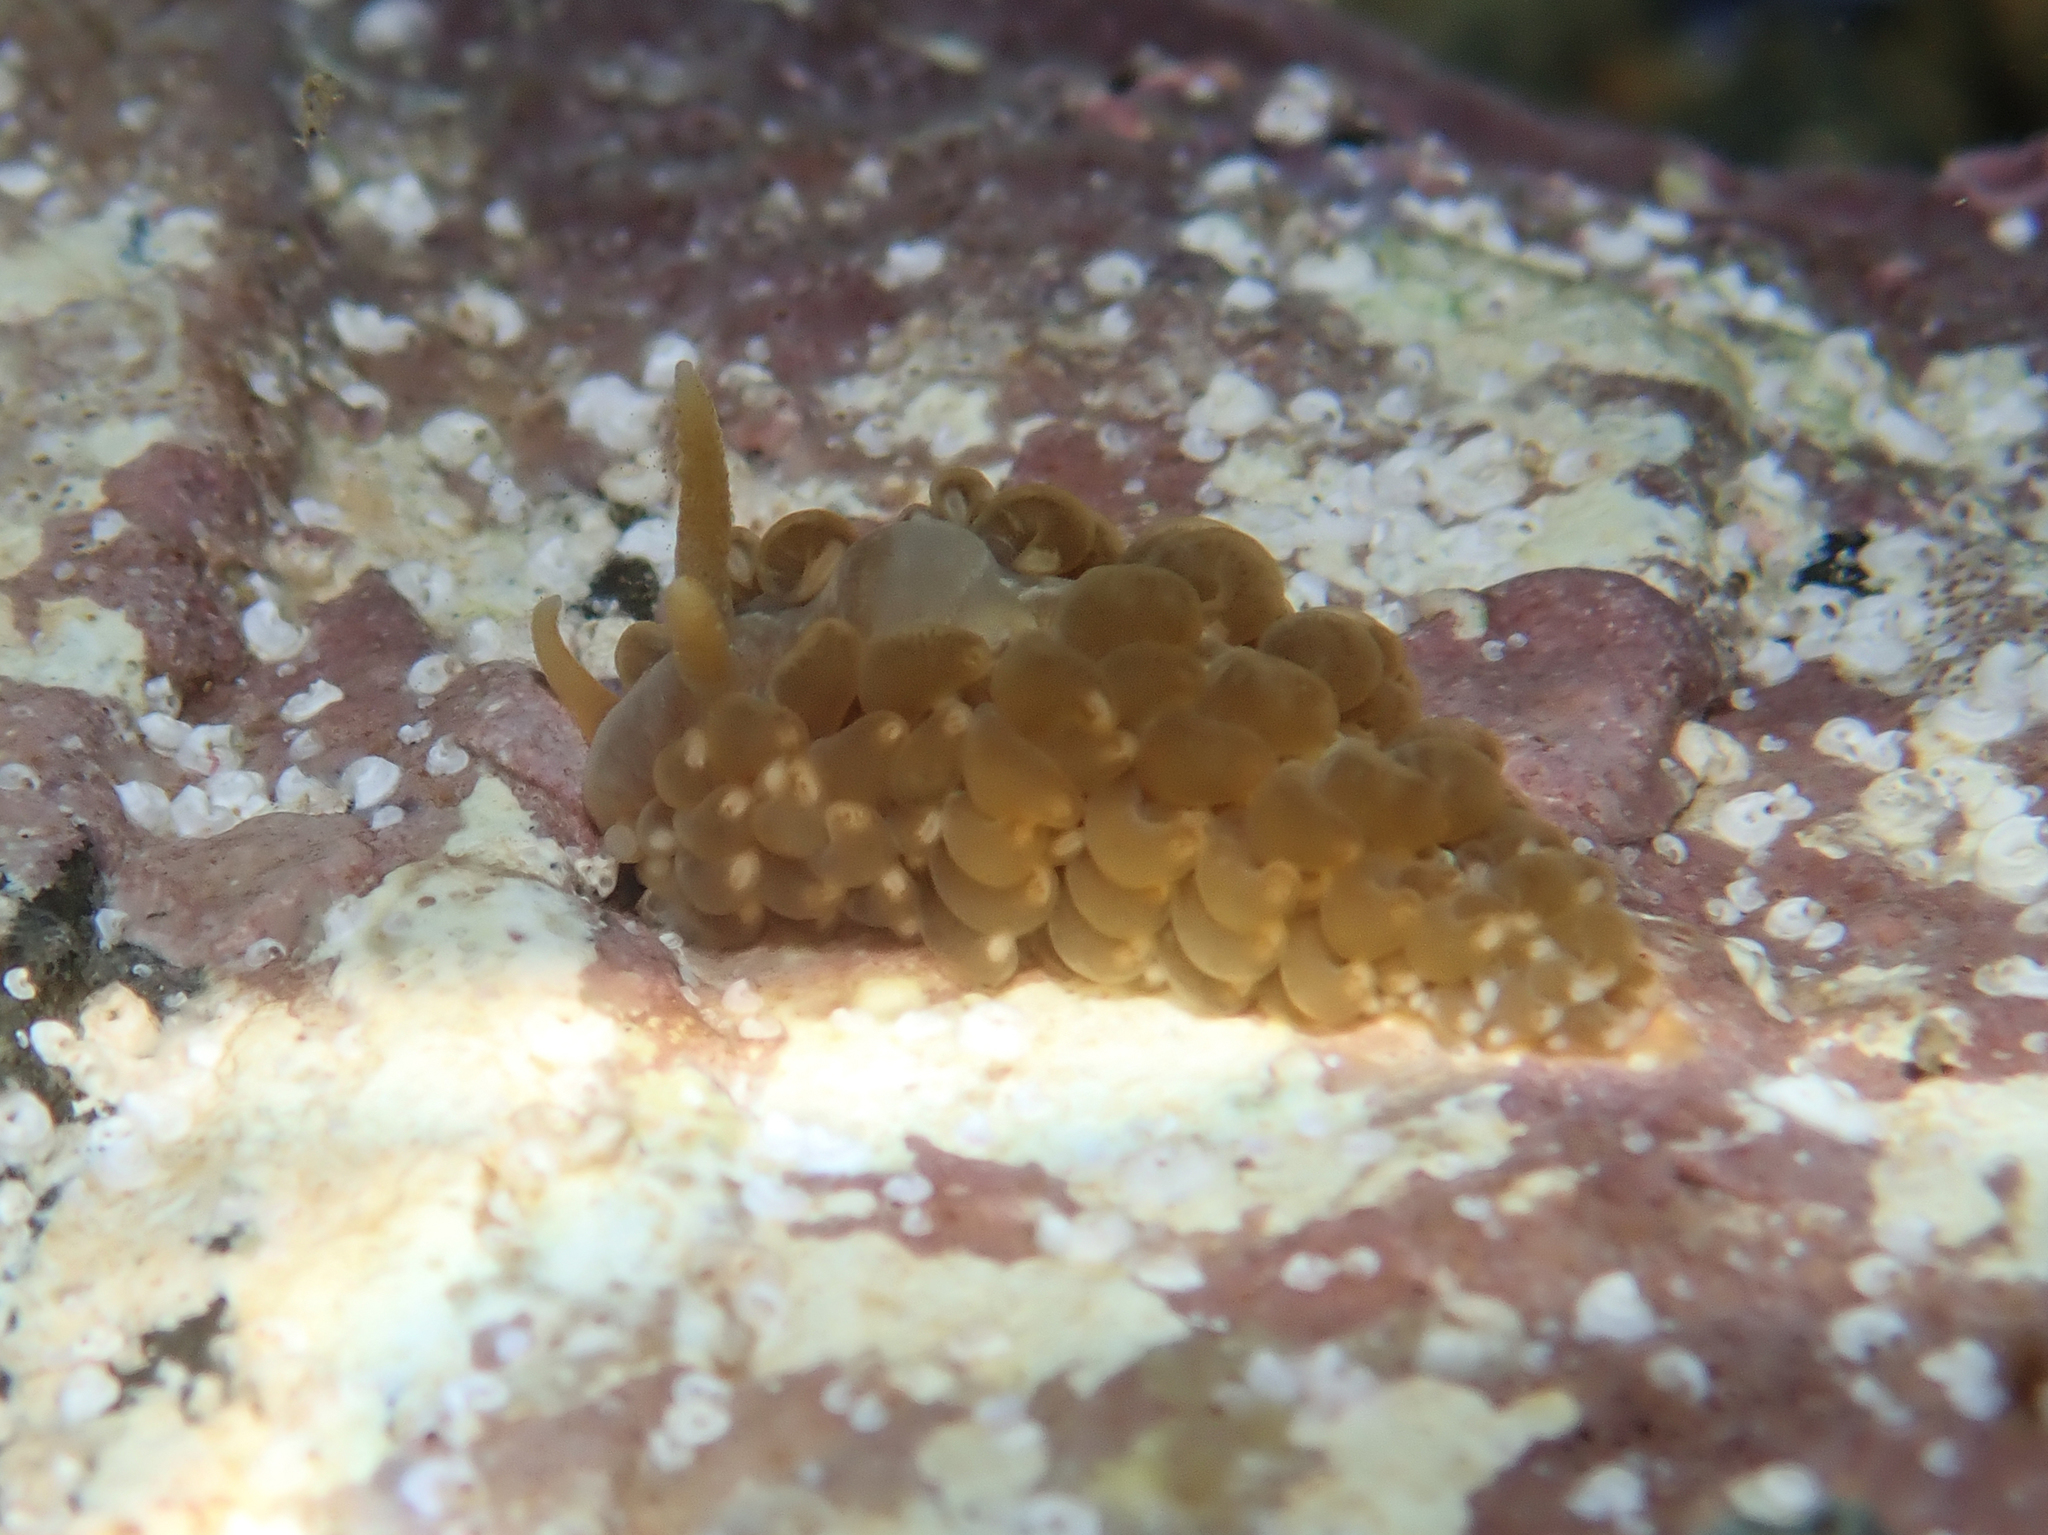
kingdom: Animalia
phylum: Mollusca
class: Gastropoda
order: Nudibranchia
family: Aeolidiidae
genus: Spurilla
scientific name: Spurilla neapolitana
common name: Naples spurilla
